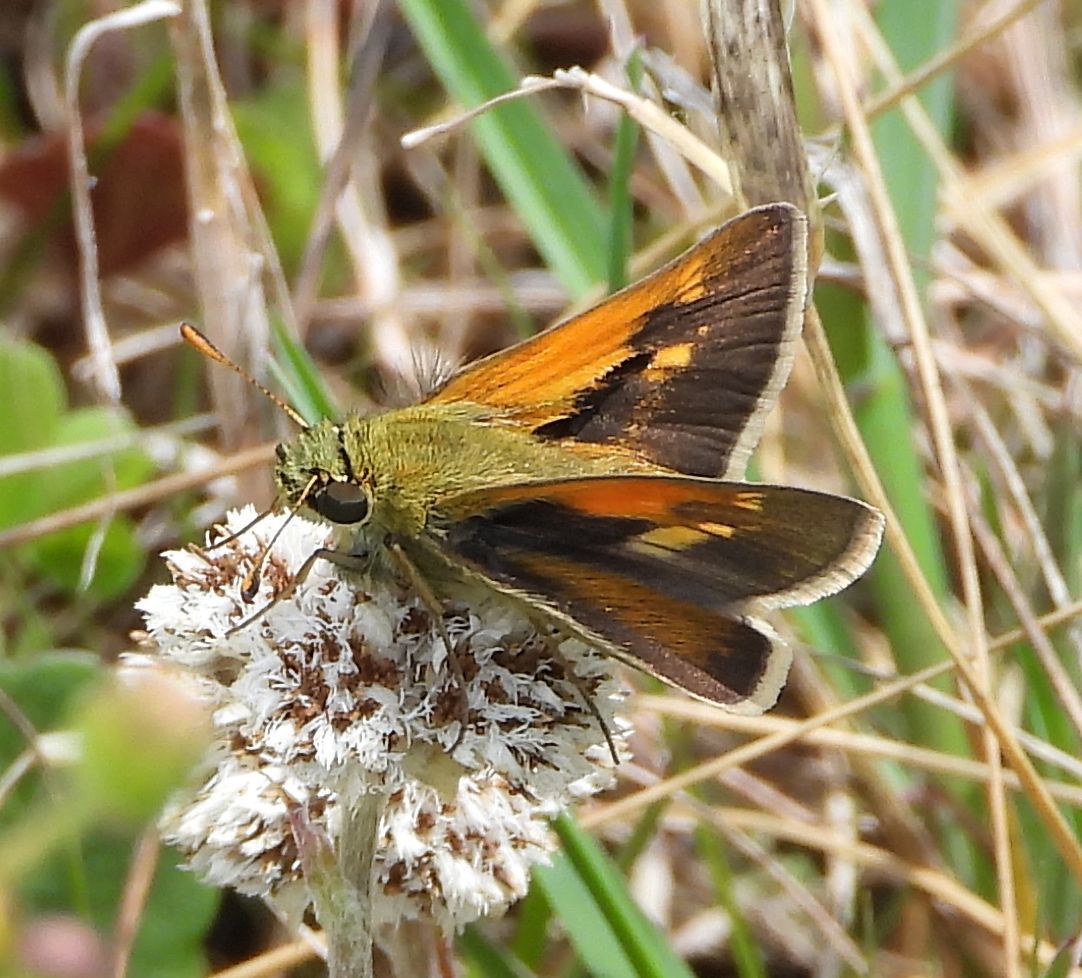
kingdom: Animalia
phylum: Arthropoda
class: Insecta
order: Lepidoptera
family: Hesperiidae
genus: Polites
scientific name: Polites themistocles
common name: Tawny-edged skipper
